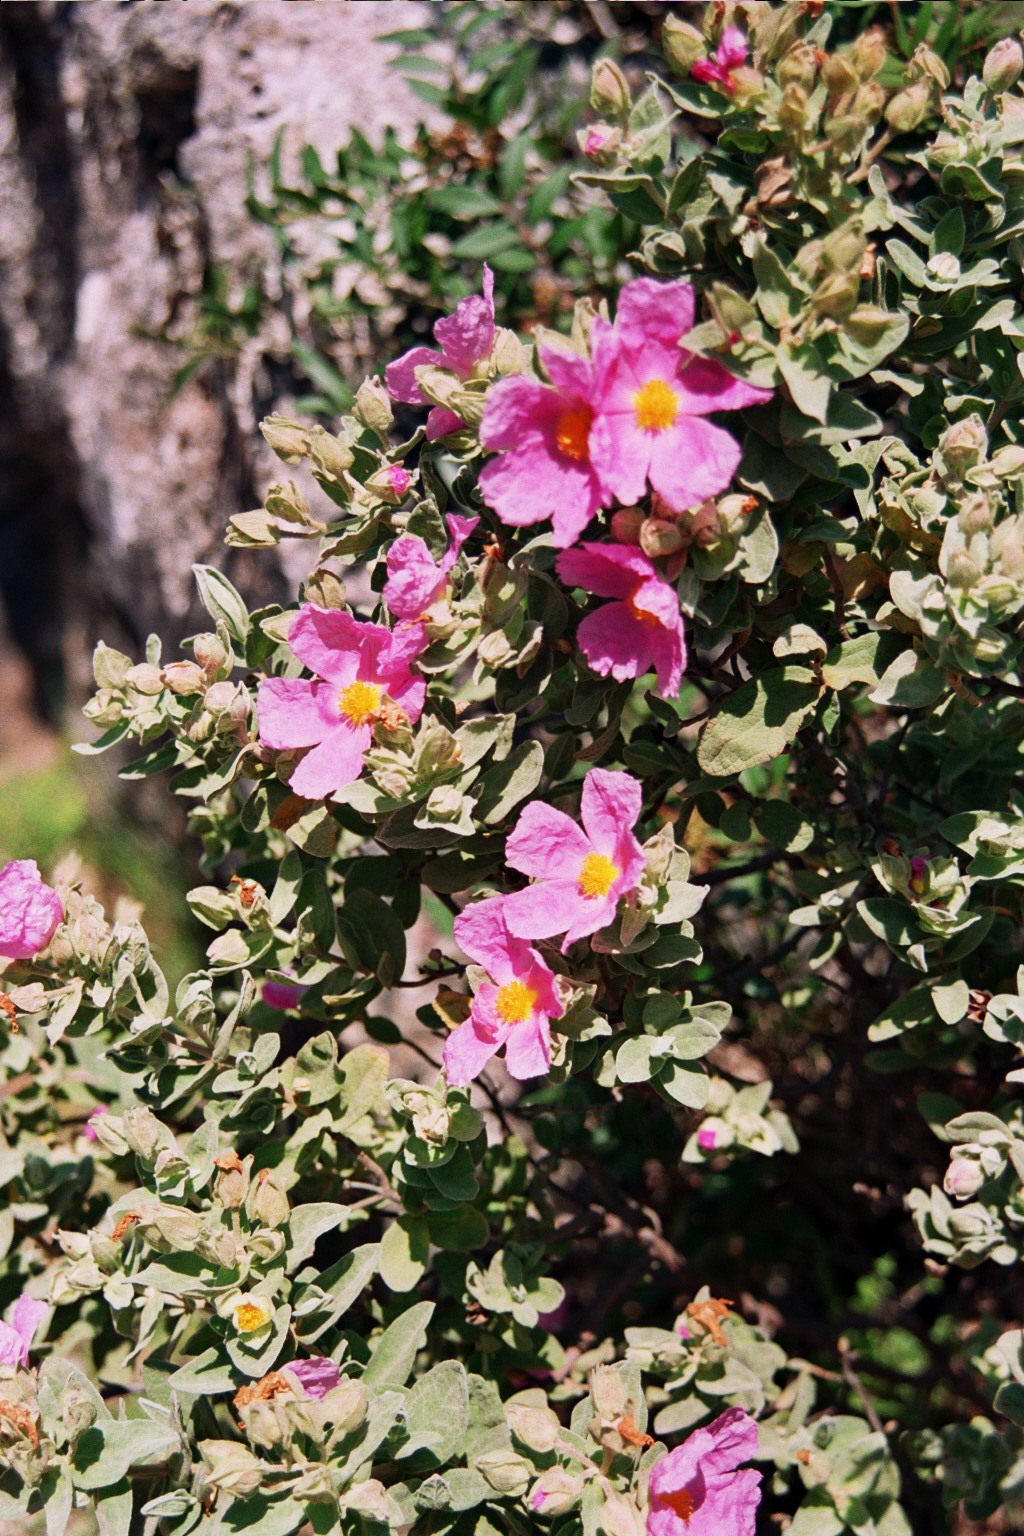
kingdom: Plantae
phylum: Tracheophyta
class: Magnoliopsida
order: Malvales
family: Cistaceae
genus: Cistus
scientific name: Cistus albidus
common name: White-leaf rock-rose
